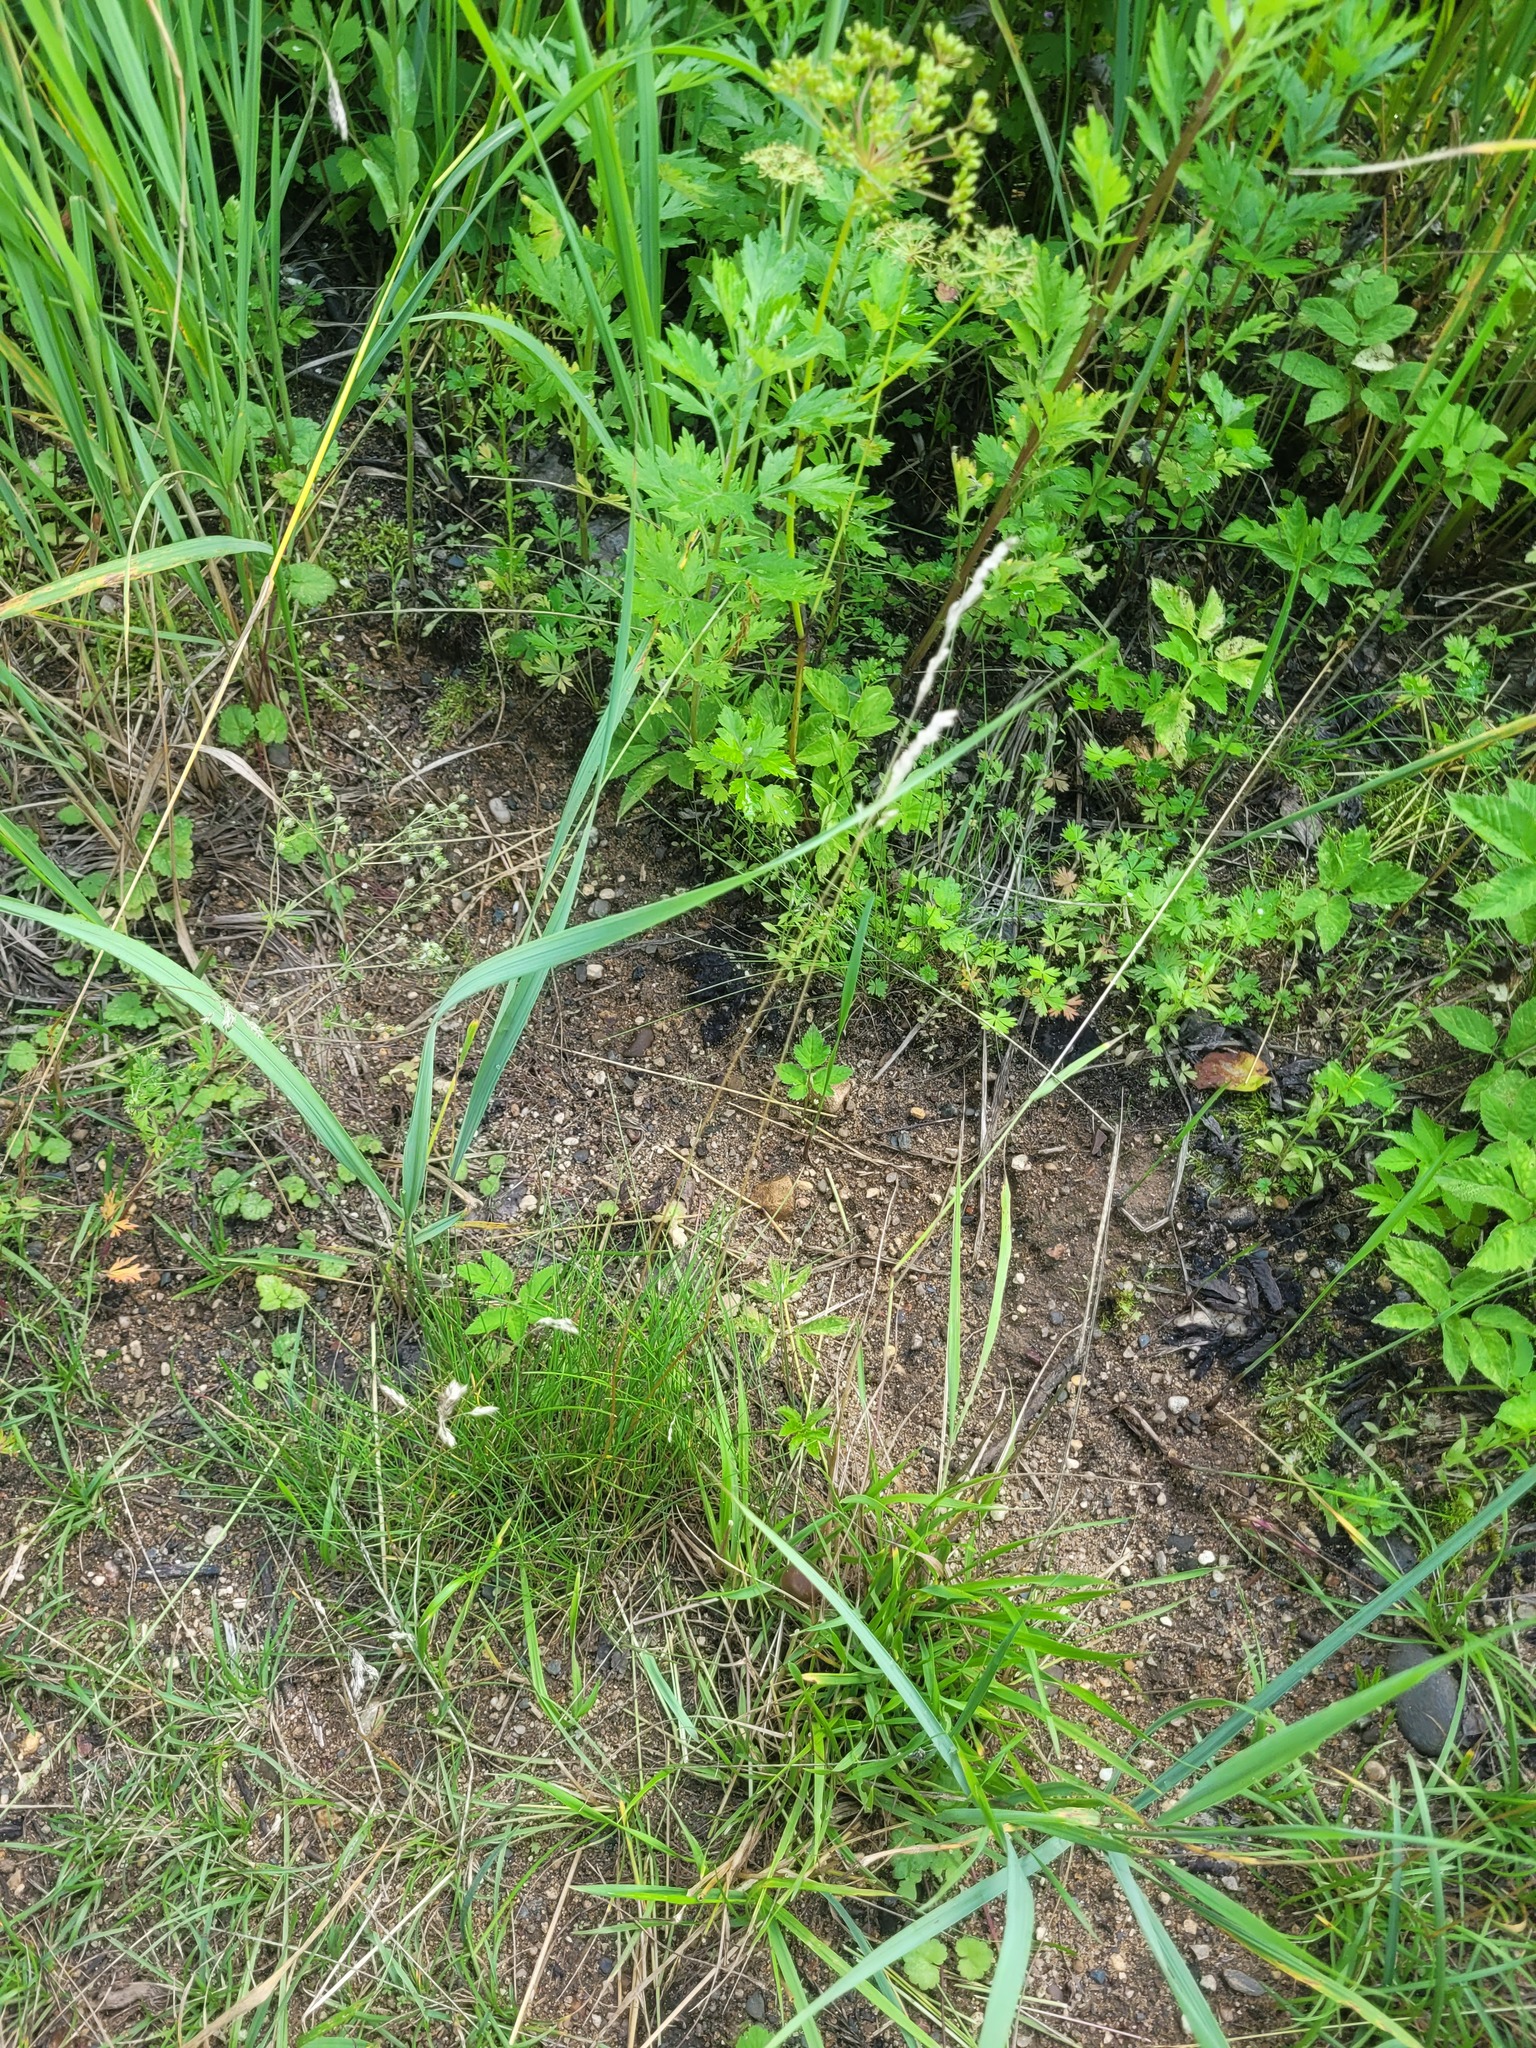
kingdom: Plantae
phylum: Tracheophyta
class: Liliopsida
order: Poales
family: Poaceae
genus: Poa
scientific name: Poa angustifolia
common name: Narrow-leaved meadow-grass
